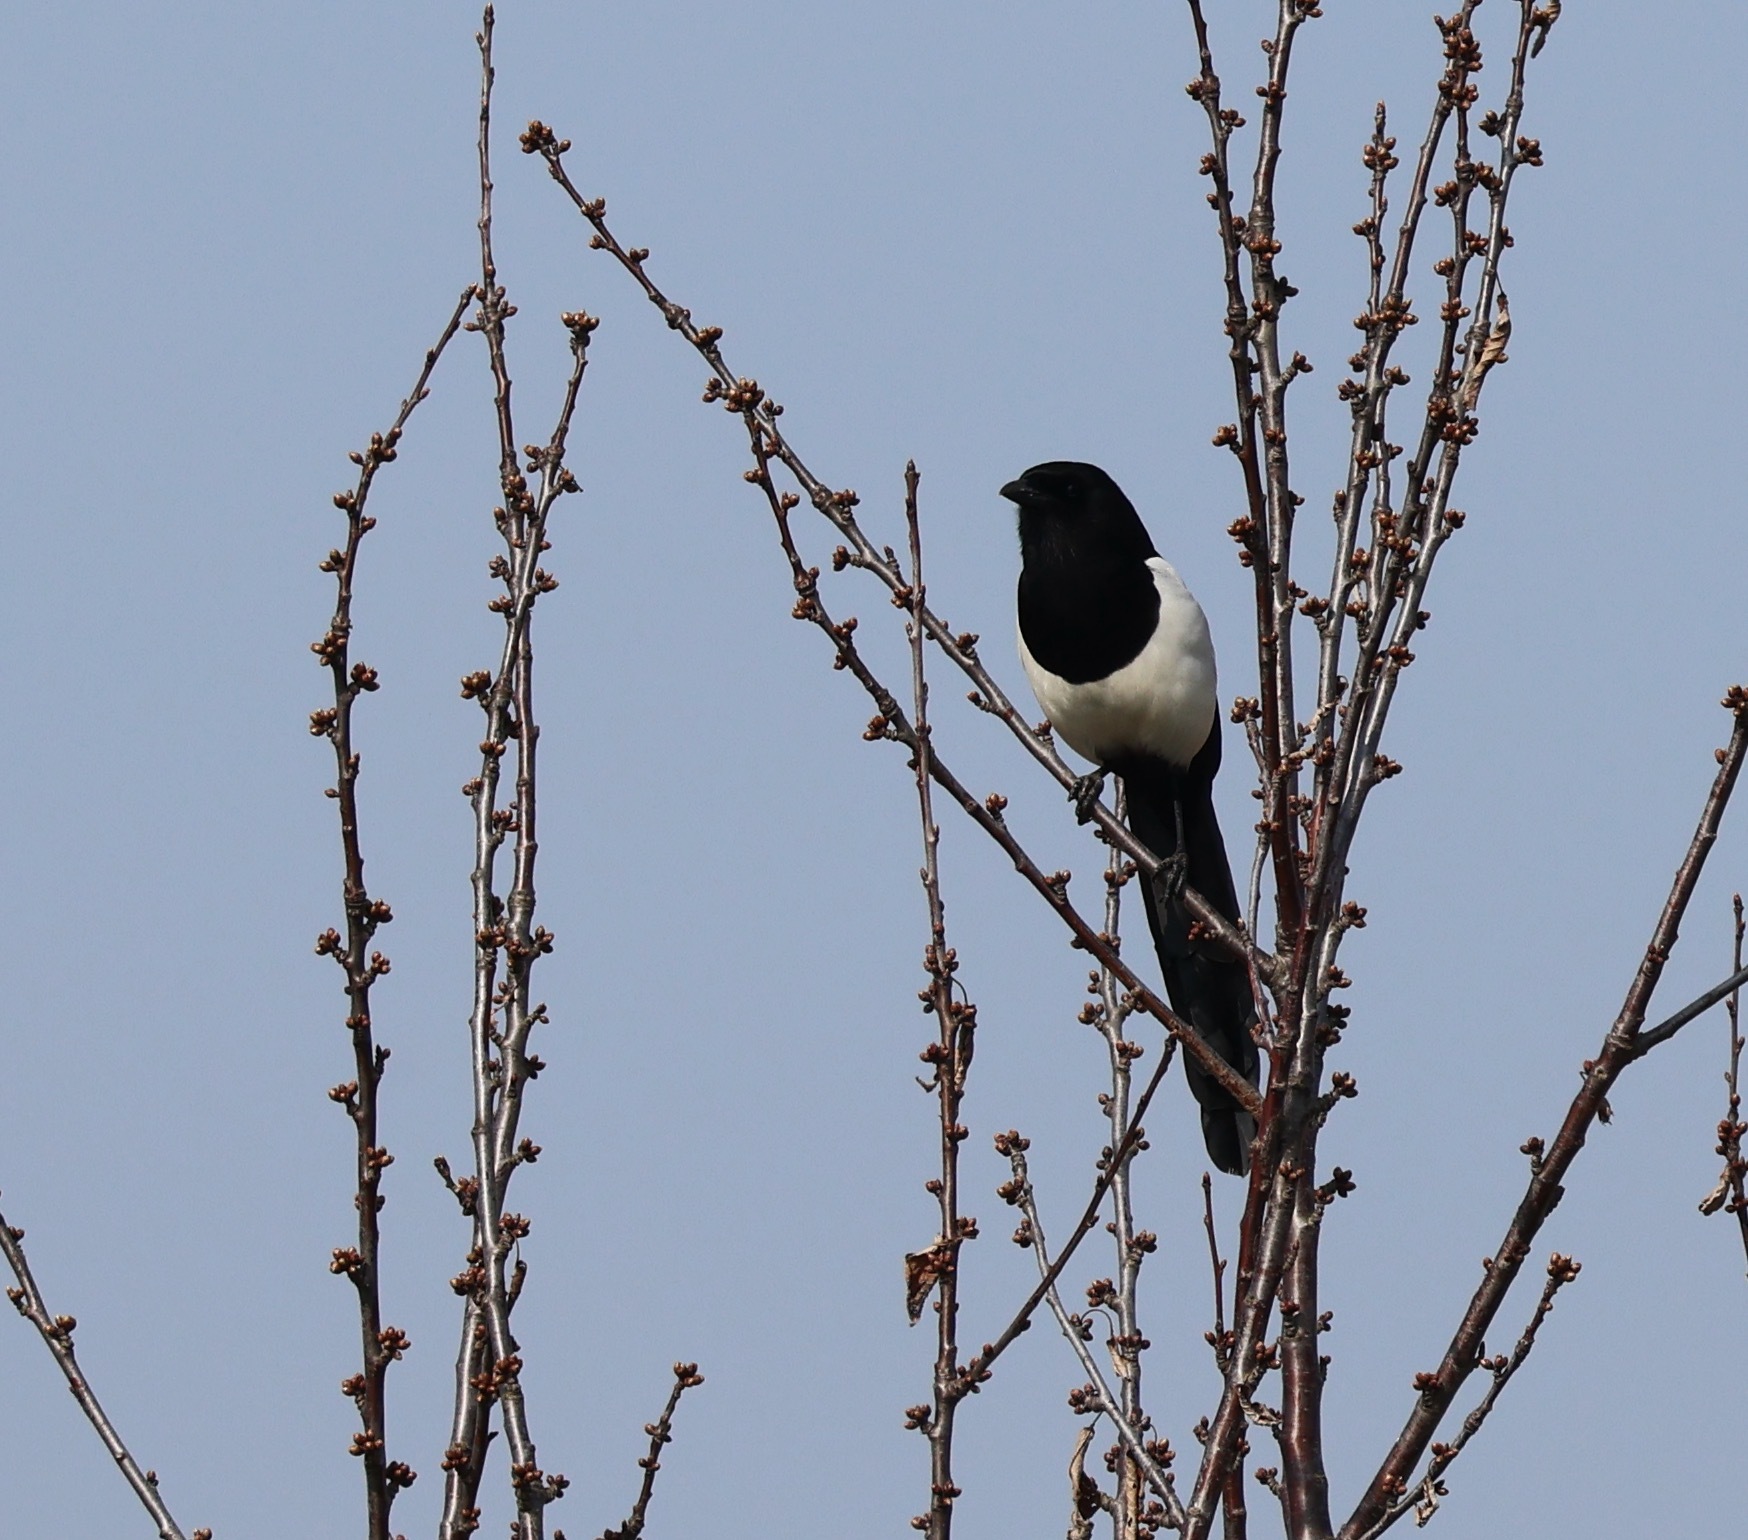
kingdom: Animalia
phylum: Chordata
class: Aves
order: Passeriformes
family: Corvidae
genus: Pica
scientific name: Pica pica
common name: Eurasian magpie
